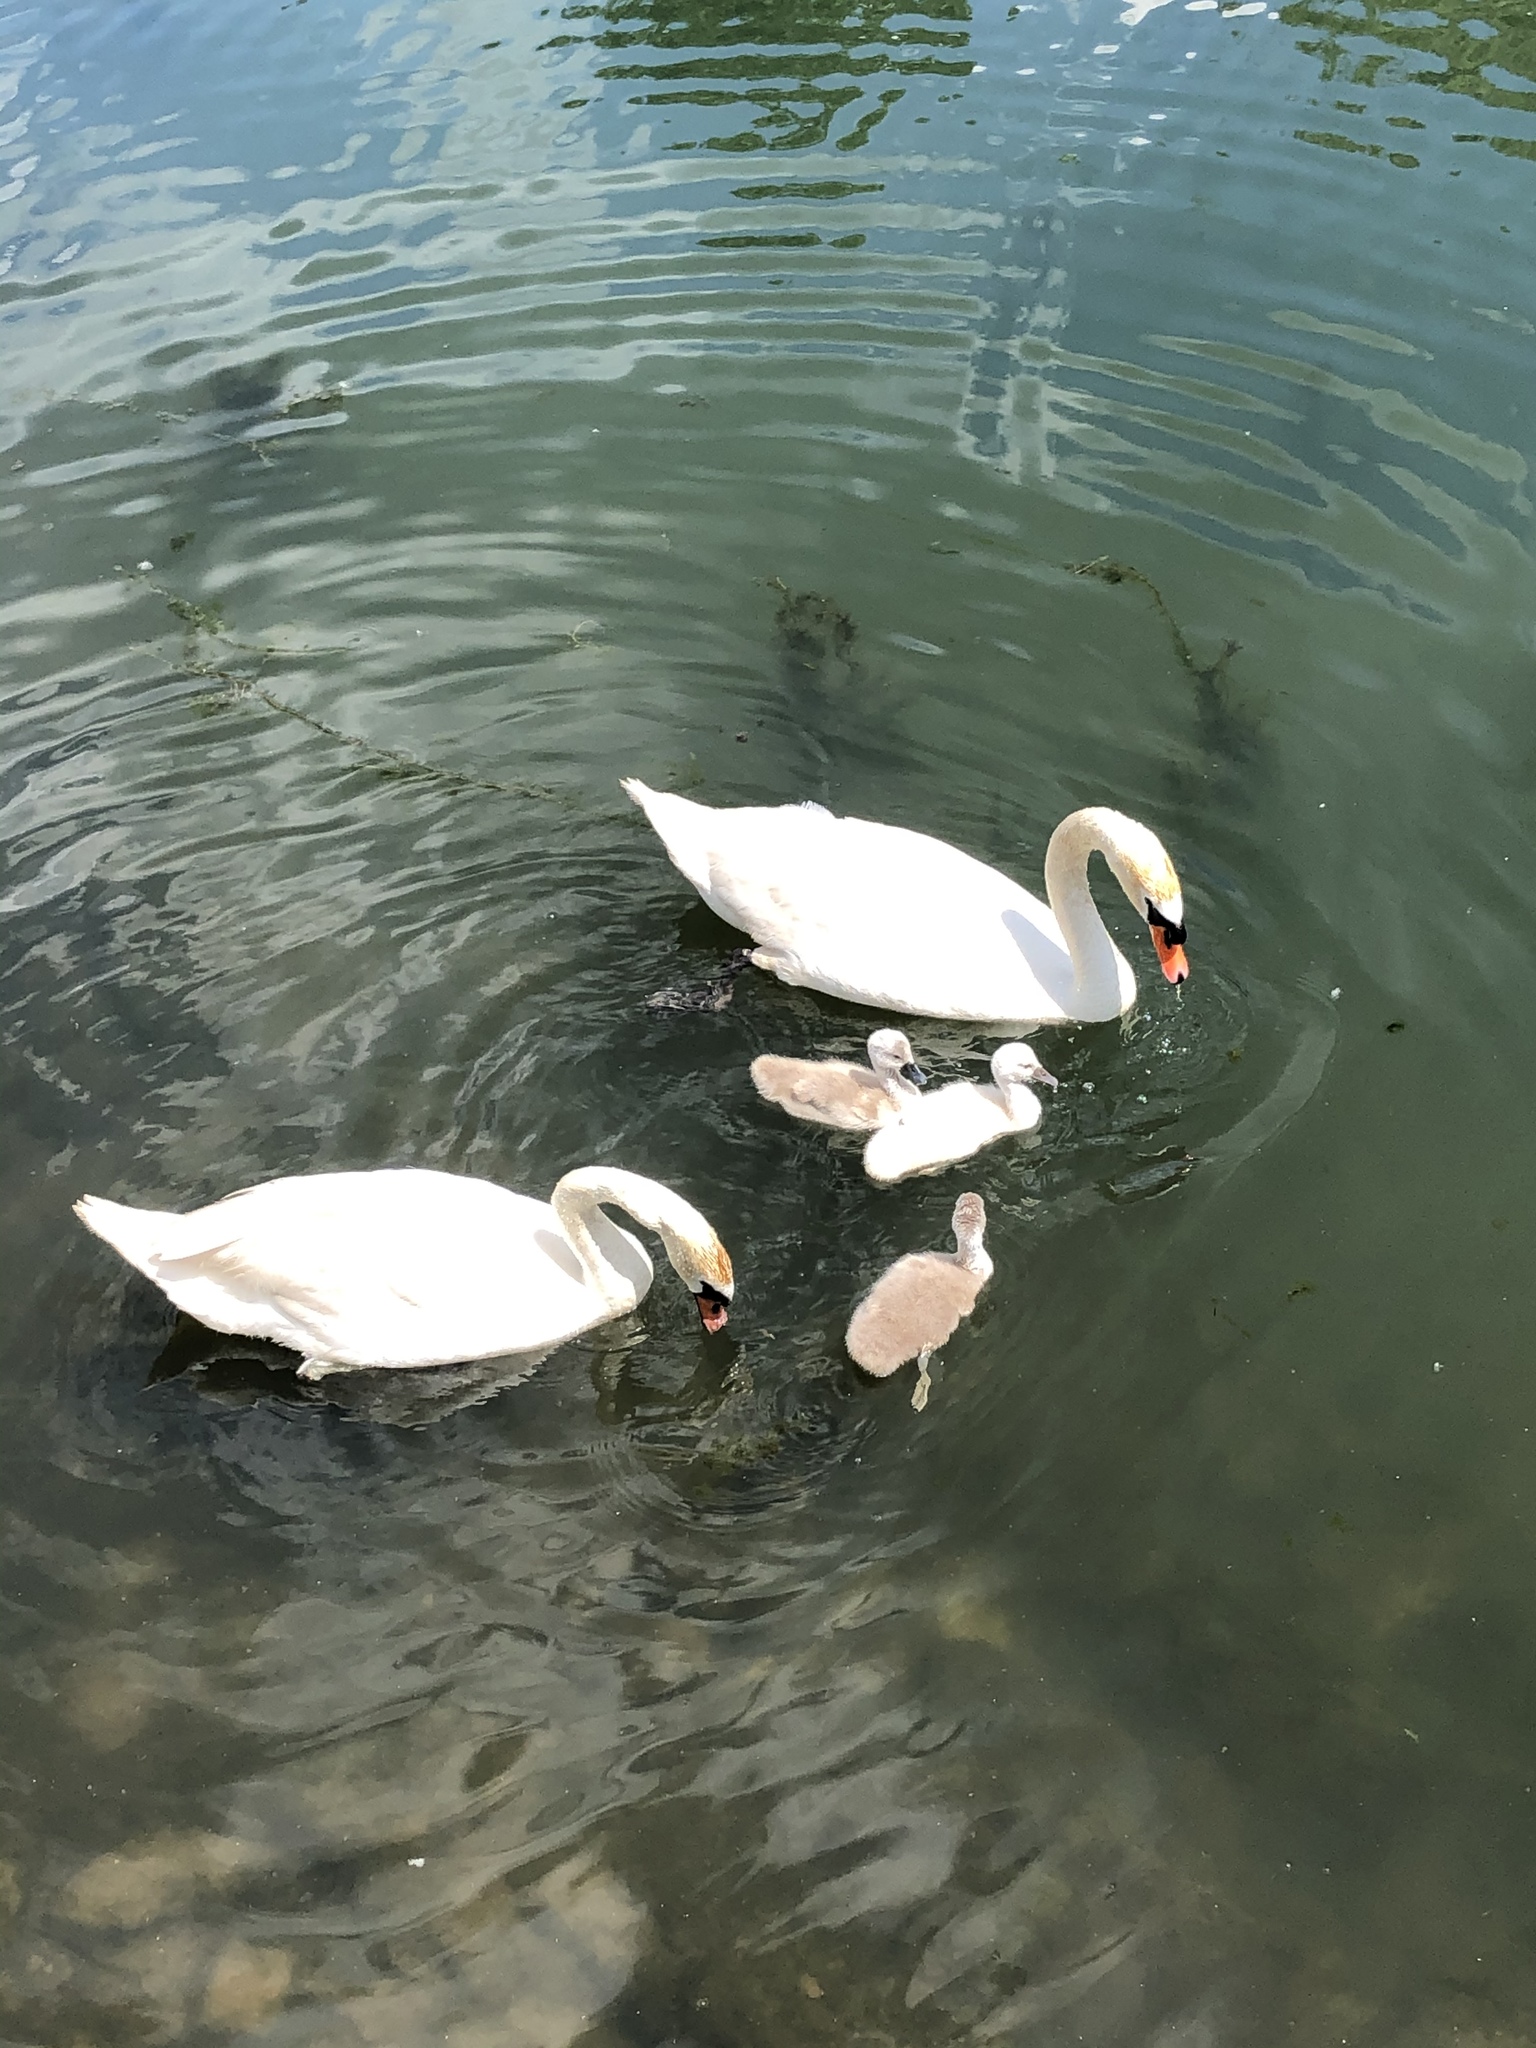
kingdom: Animalia
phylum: Chordata
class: Aves
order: Anseriformes
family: Anatidae
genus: Cygnus
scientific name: Cygnus olor
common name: Mute swan
